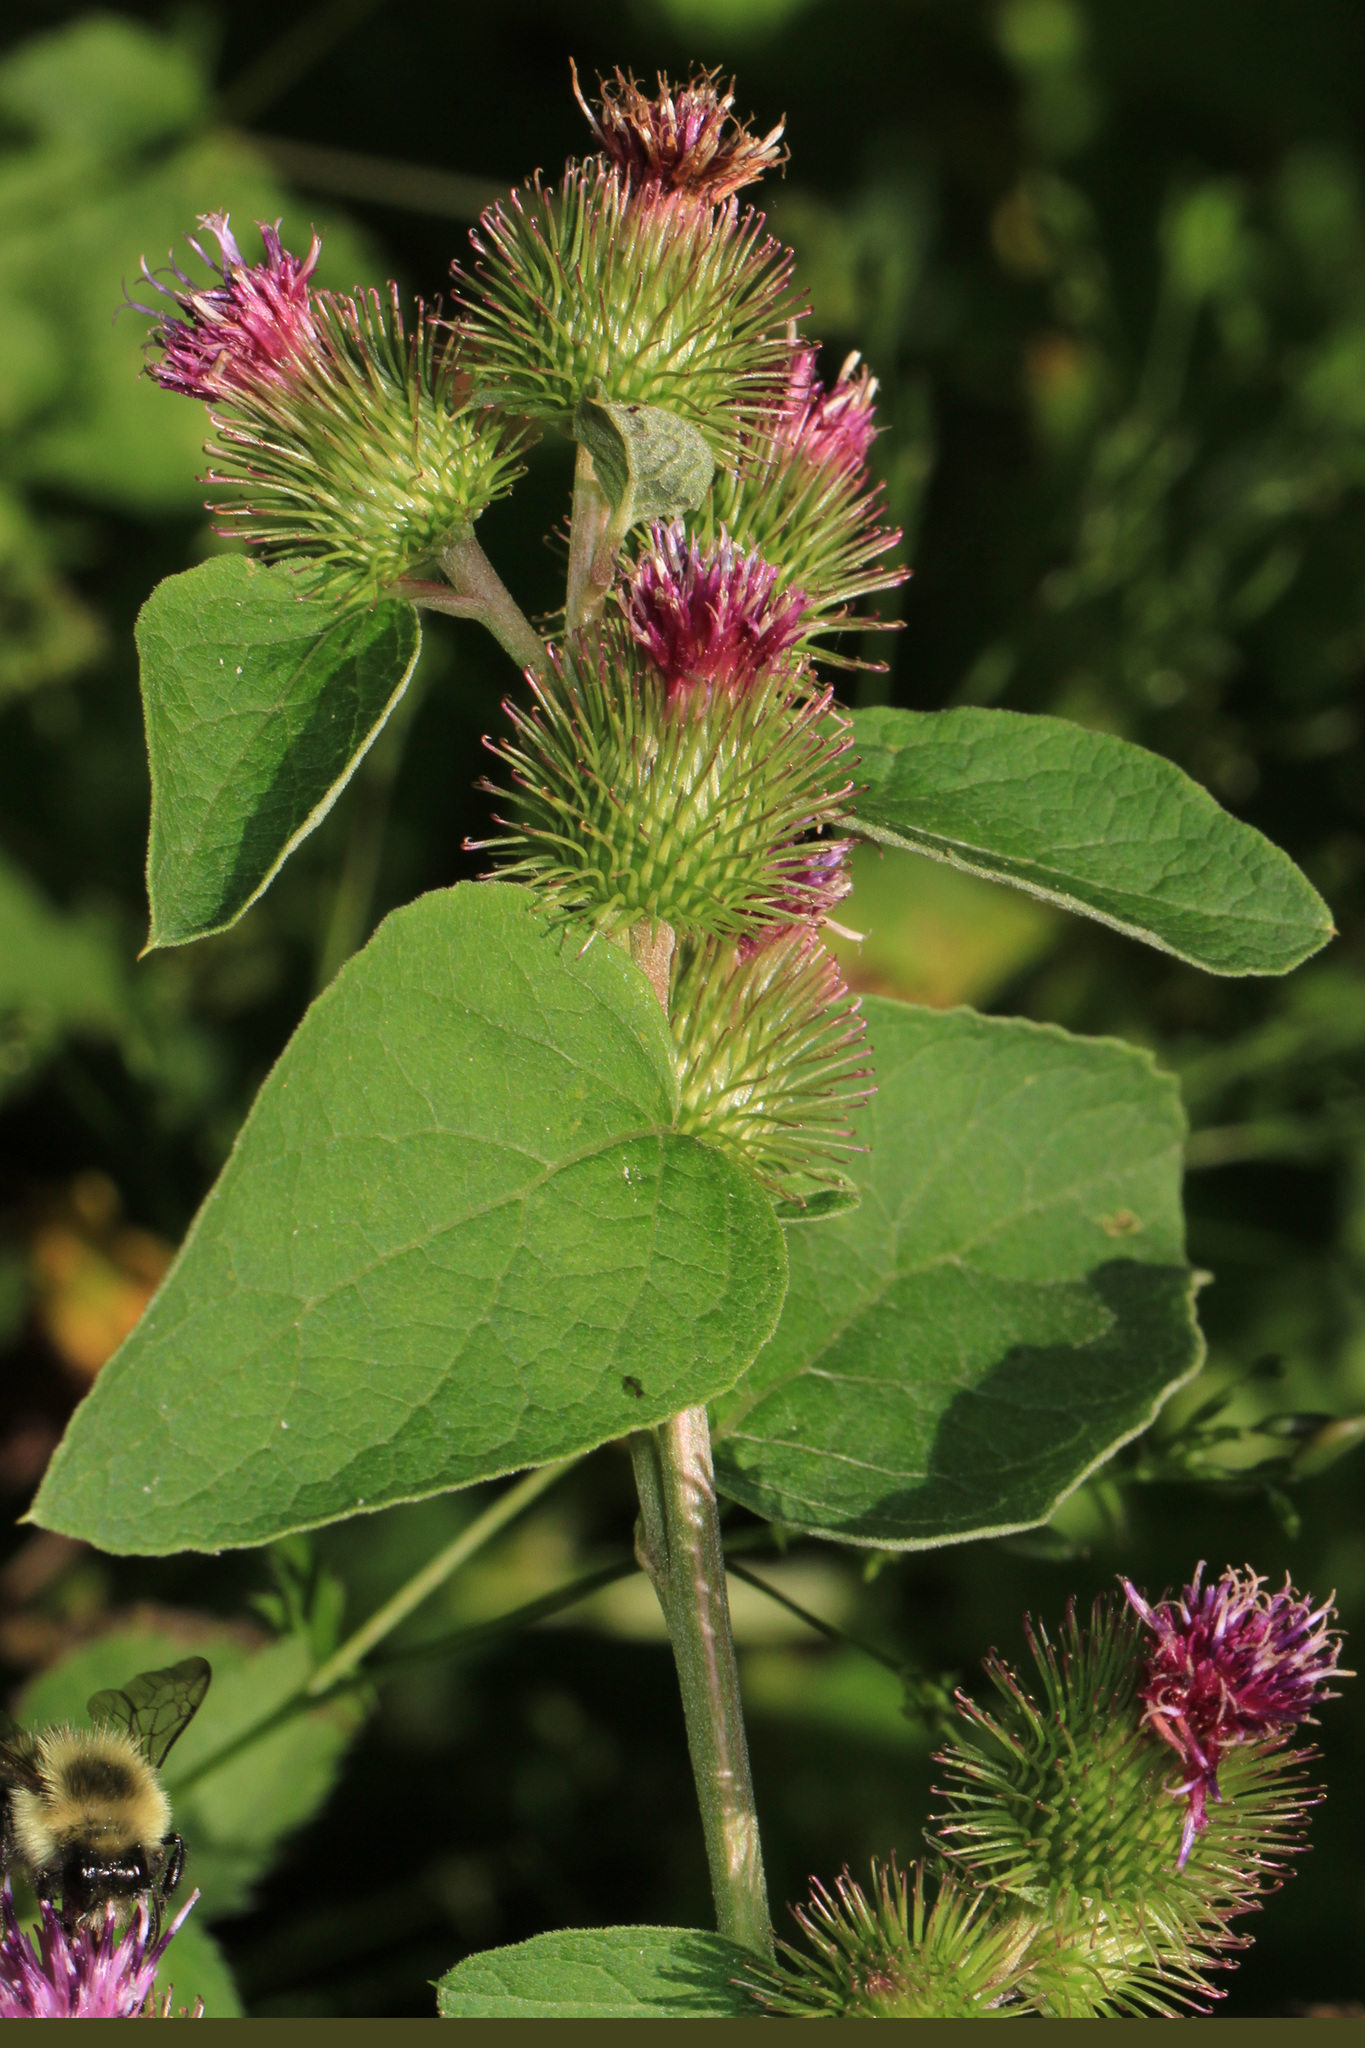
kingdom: Plantae
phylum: Tracheophyta
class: Magnoliopsida
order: Asterales
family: Asteraceae
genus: Arctium
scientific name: Arctium minus
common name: Lesser burdock
